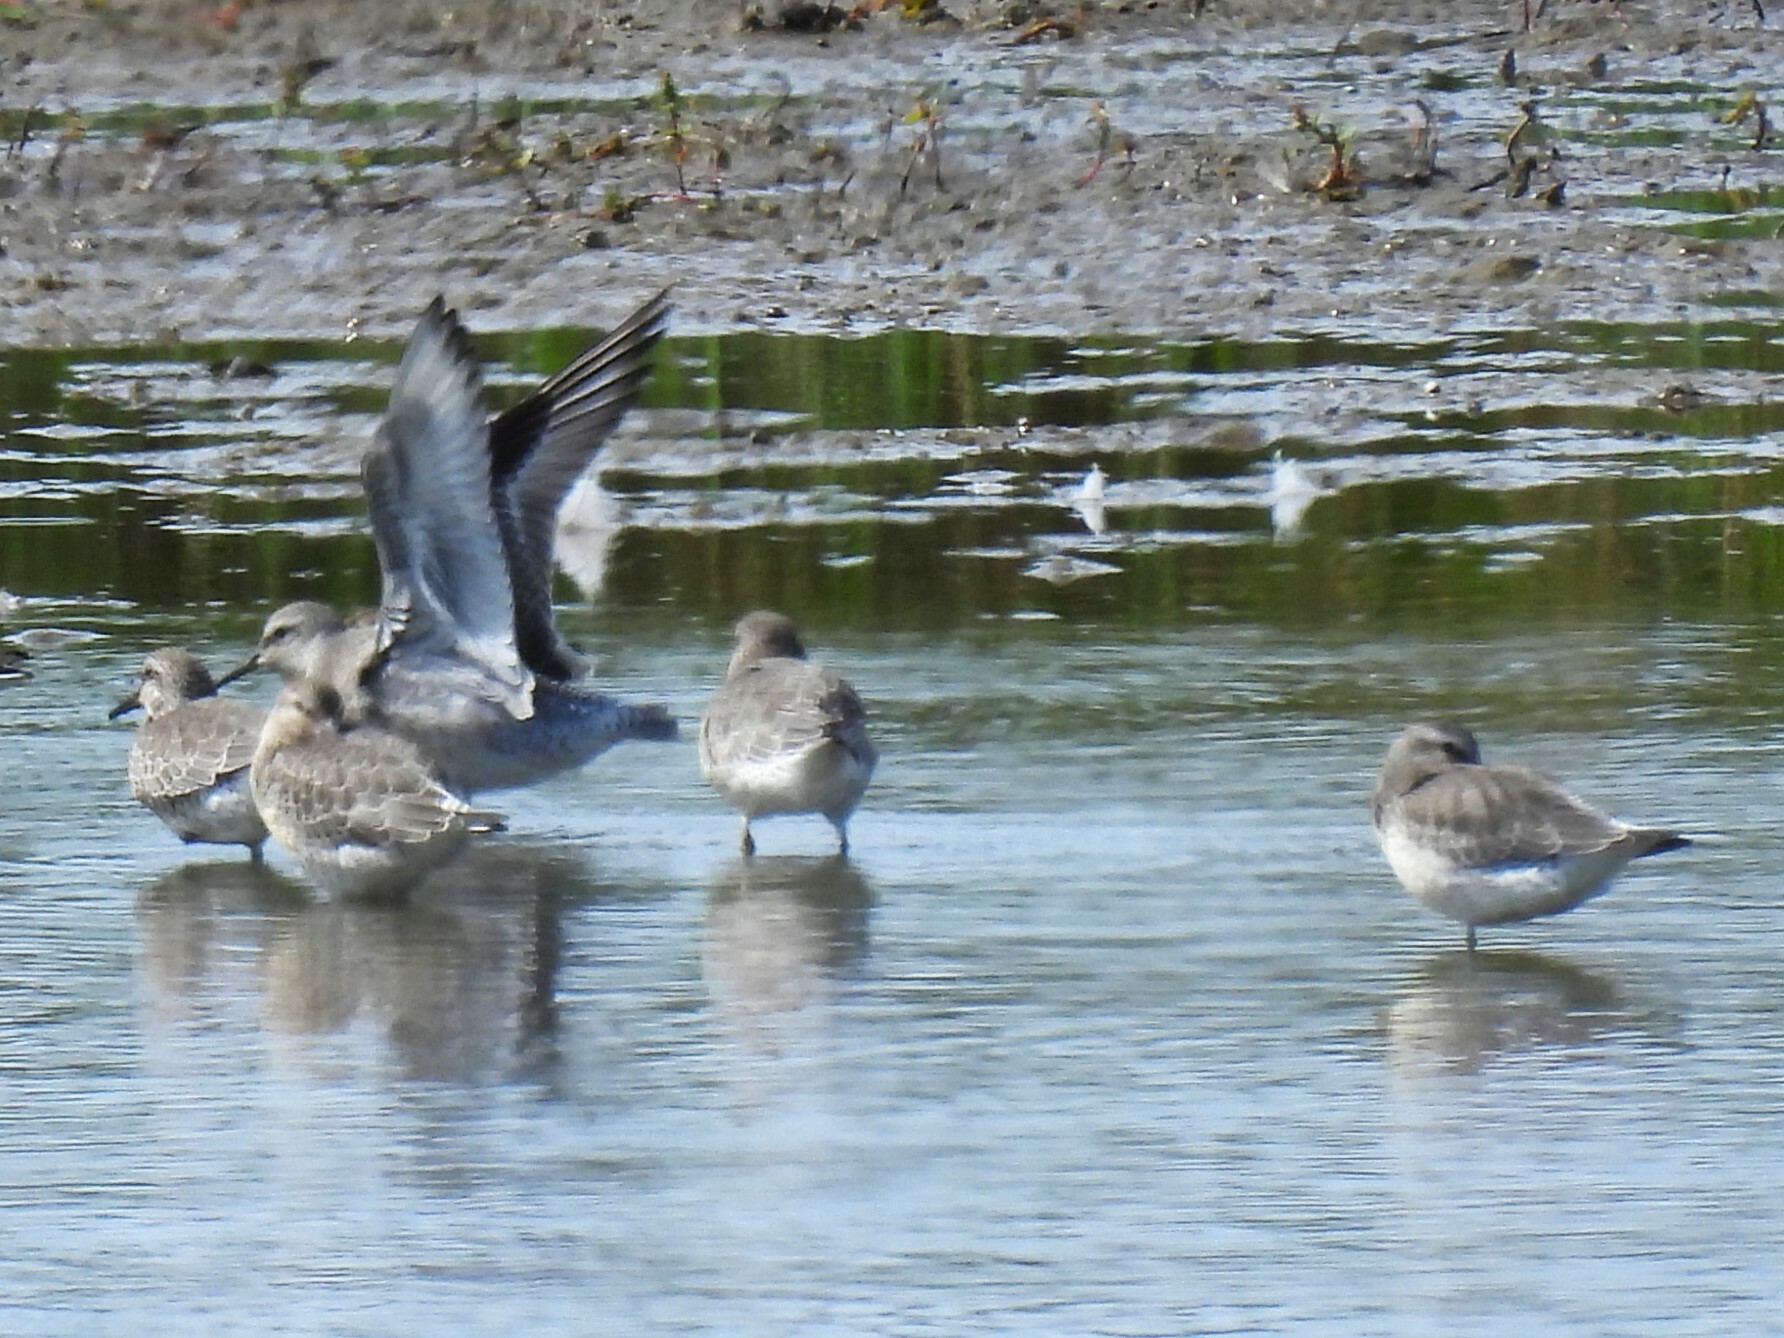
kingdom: Animalia
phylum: Chordata
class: Aves
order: Charadriiformes
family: Scolopacidae
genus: Calidris
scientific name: Calidris canutus
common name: Red knot
